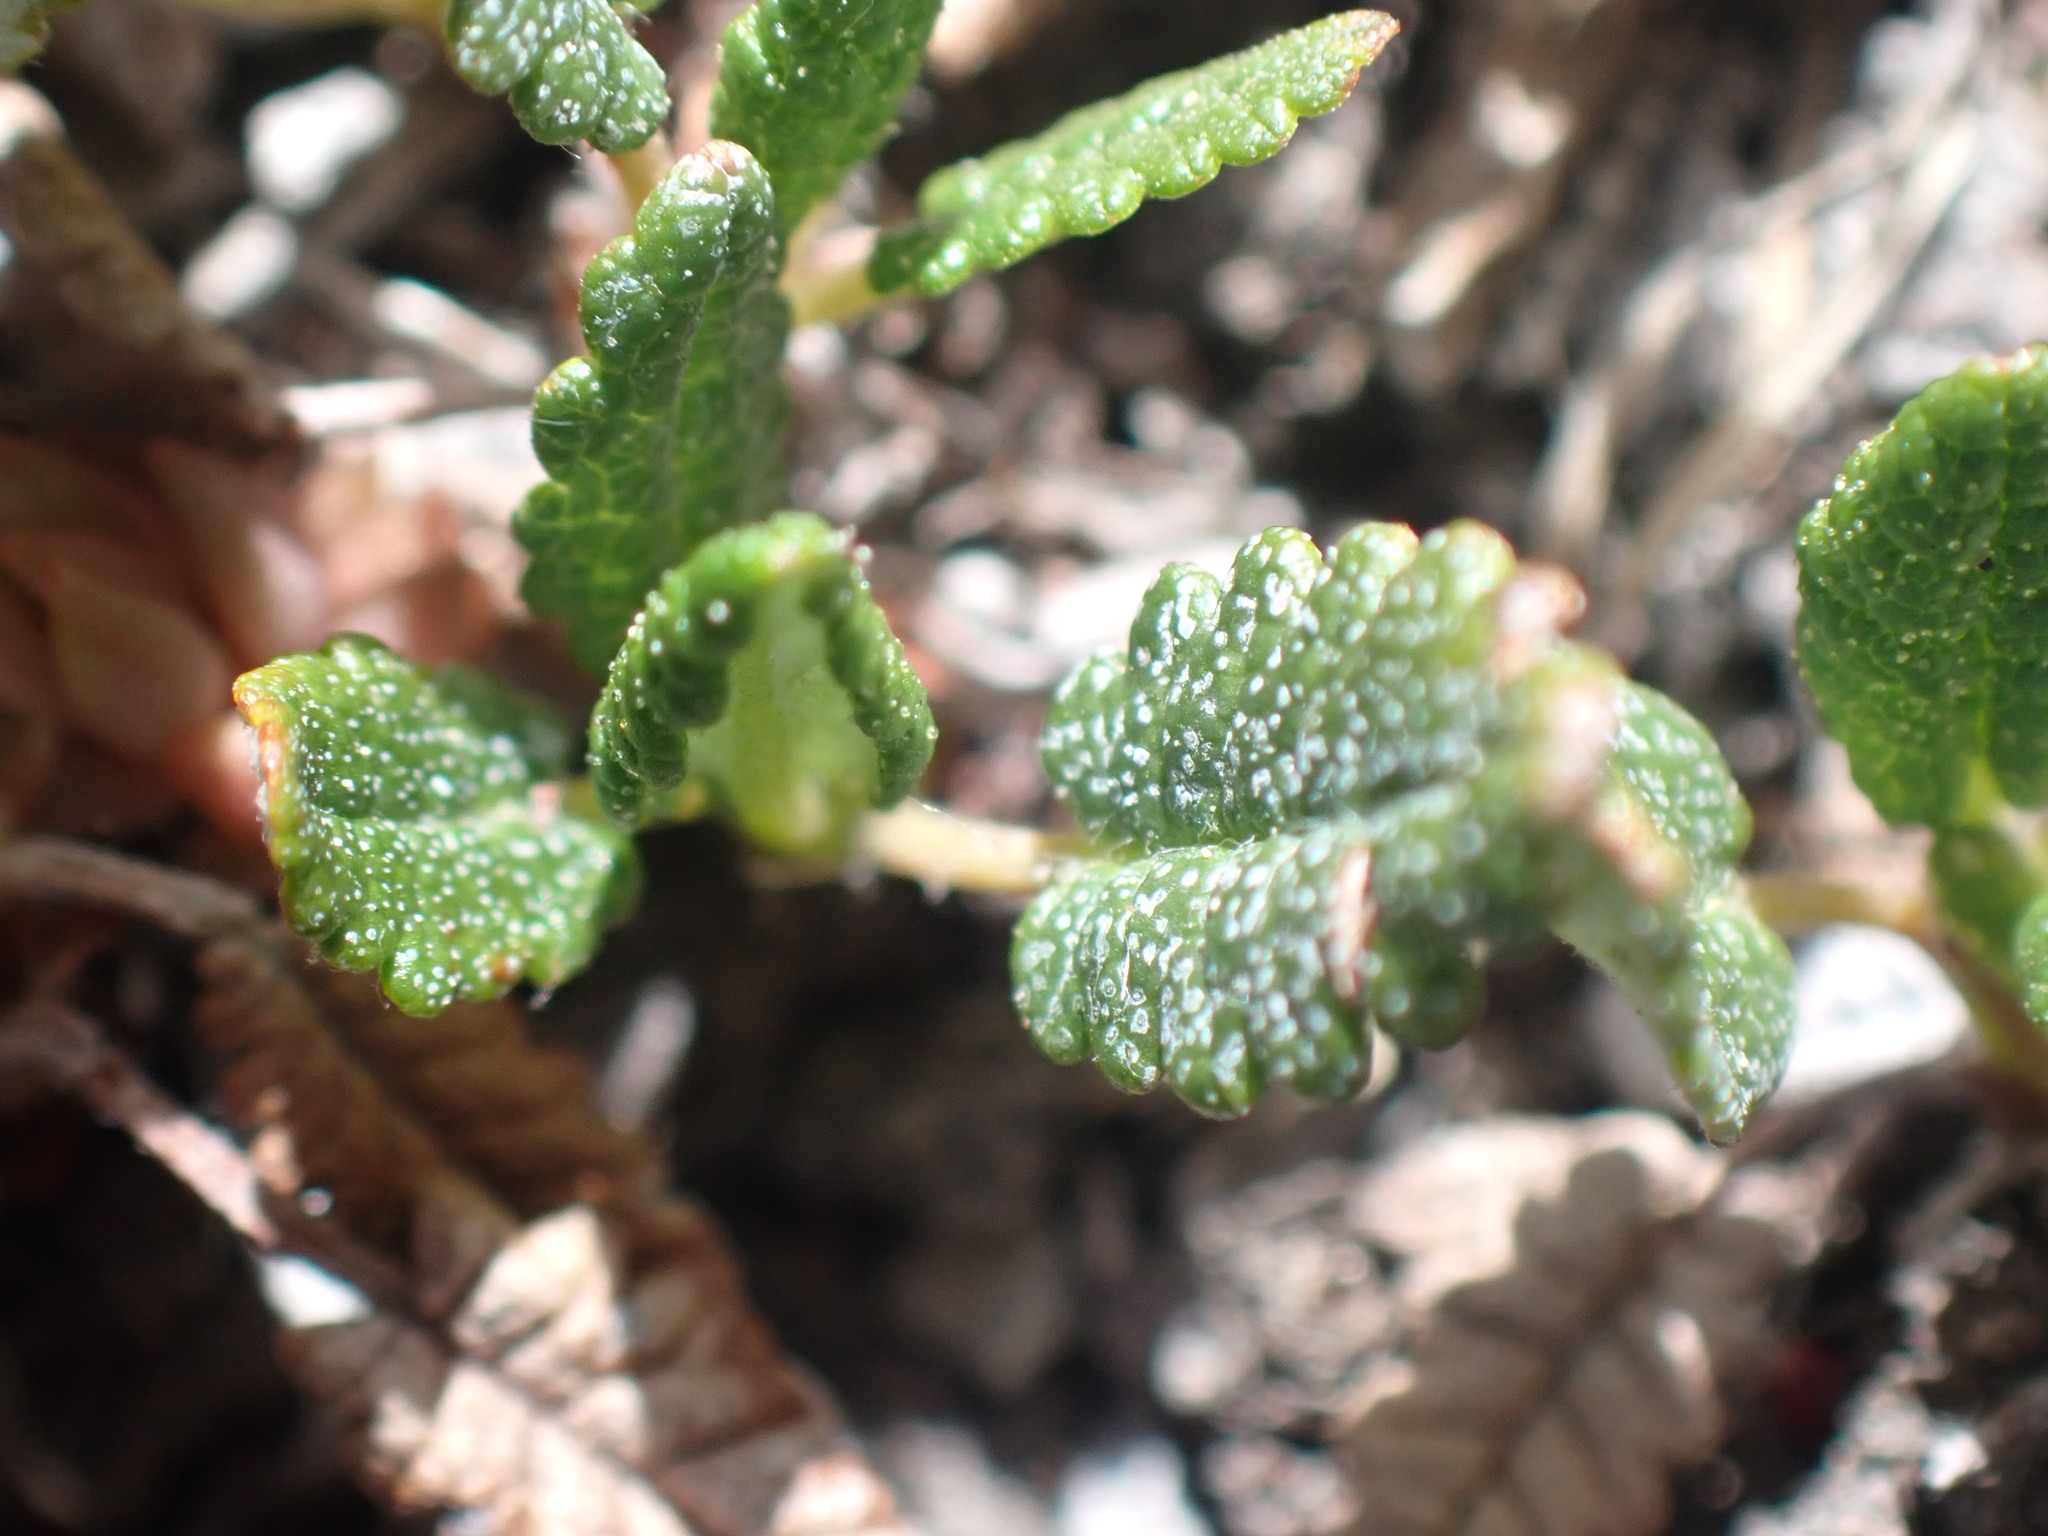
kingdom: Plantae
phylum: Tracheophyta
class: Magnoliopsida
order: Rosales
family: Rosaceae
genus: Dryas
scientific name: Dryas octopetala
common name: Eight-petal mountain-avens
